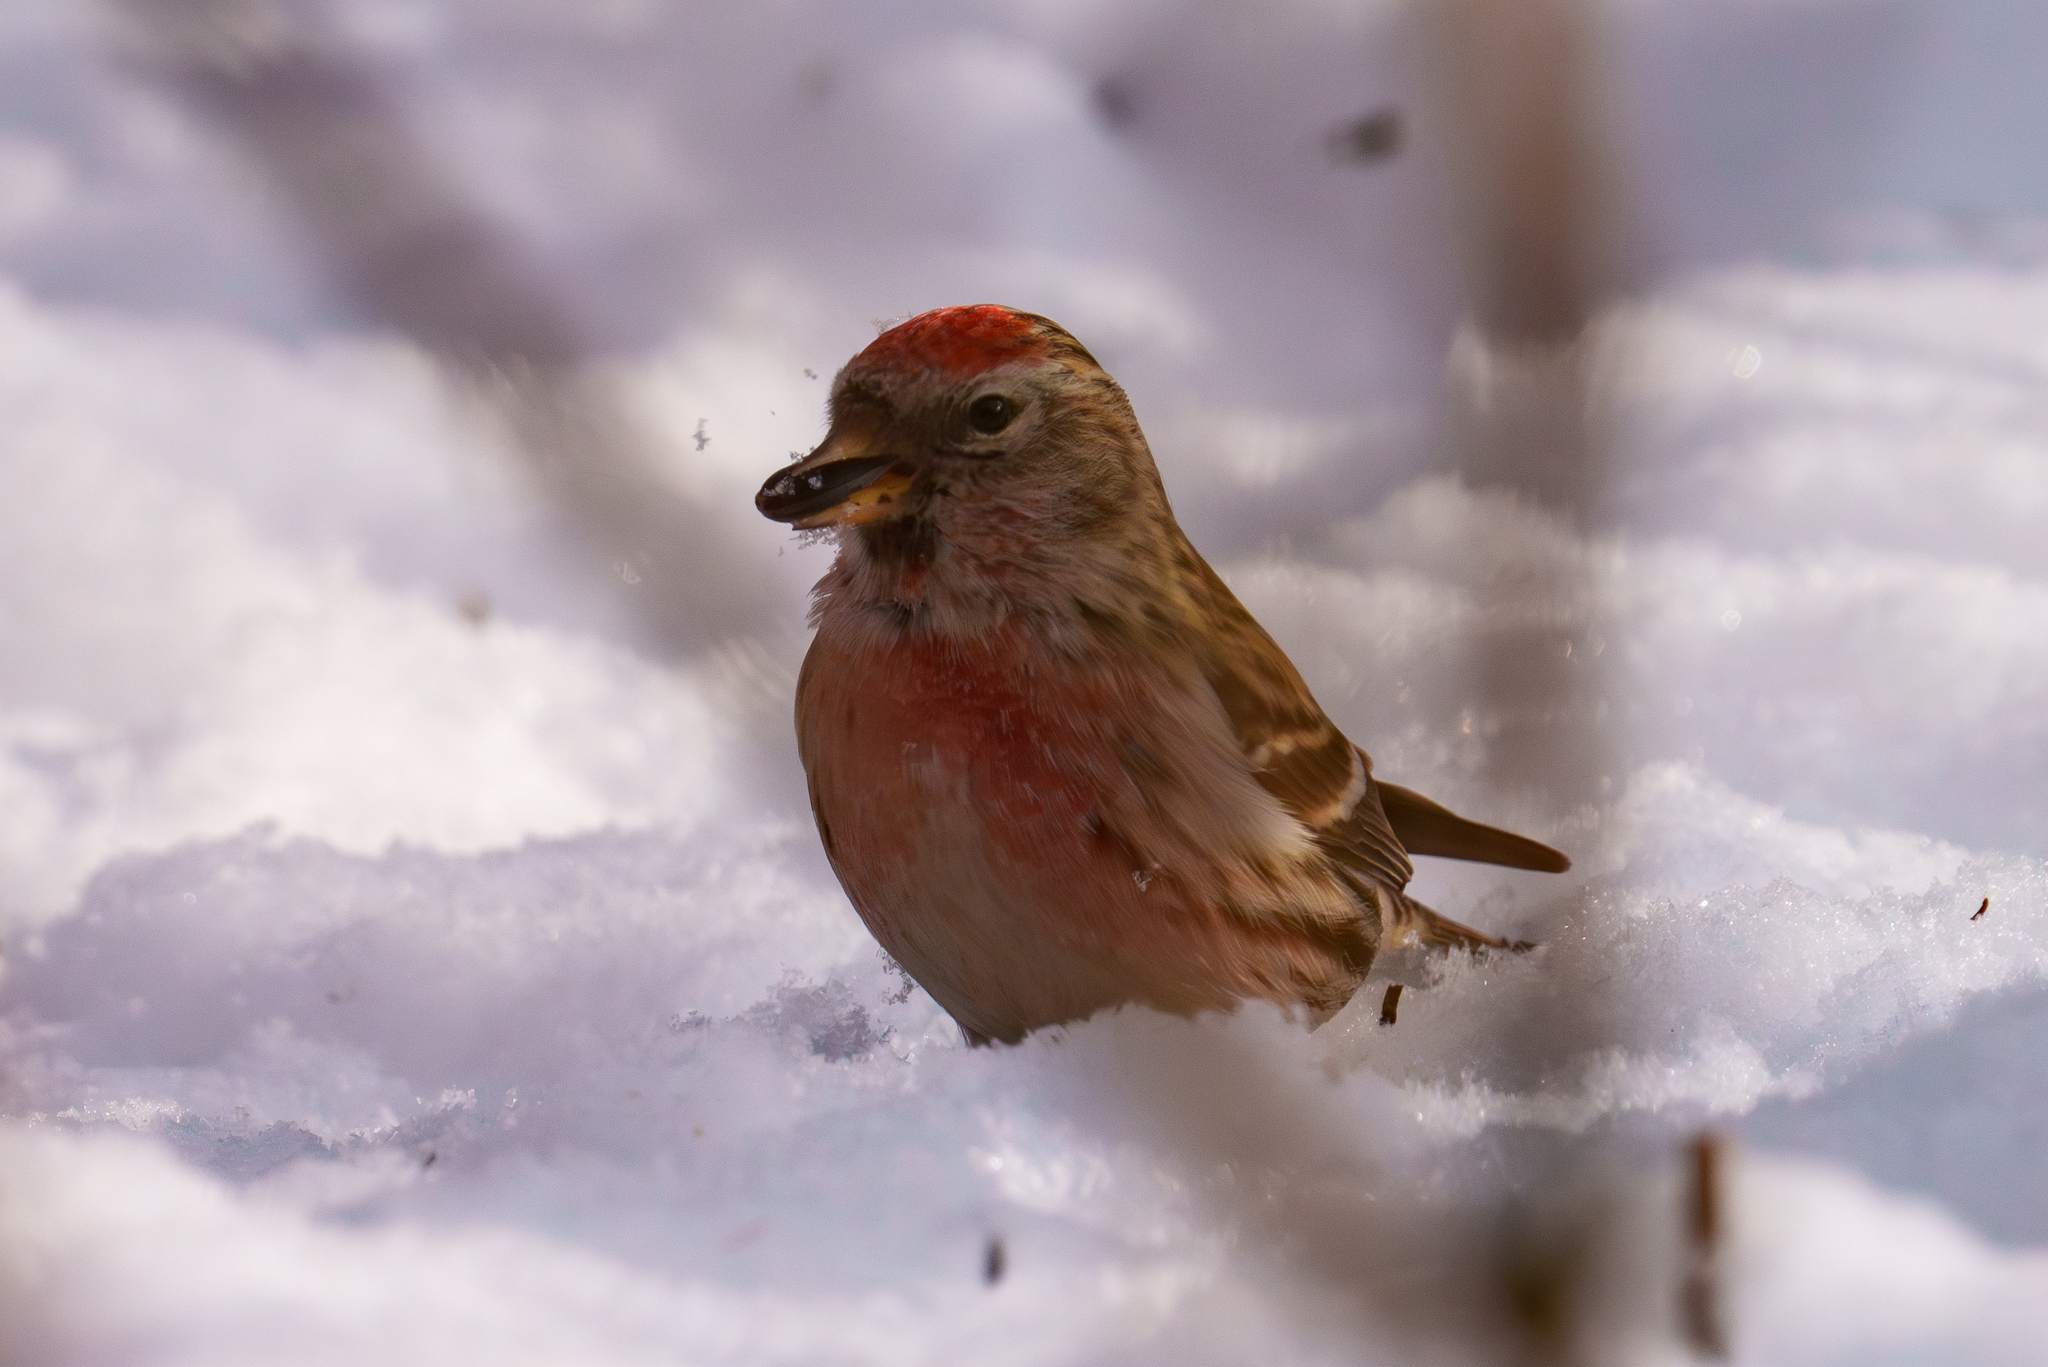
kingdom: Animalia
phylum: Chordata
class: Aves
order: Passeriformes
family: Fringillidae
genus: Acanthis
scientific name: Acanthis flammea
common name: Common redpoll
